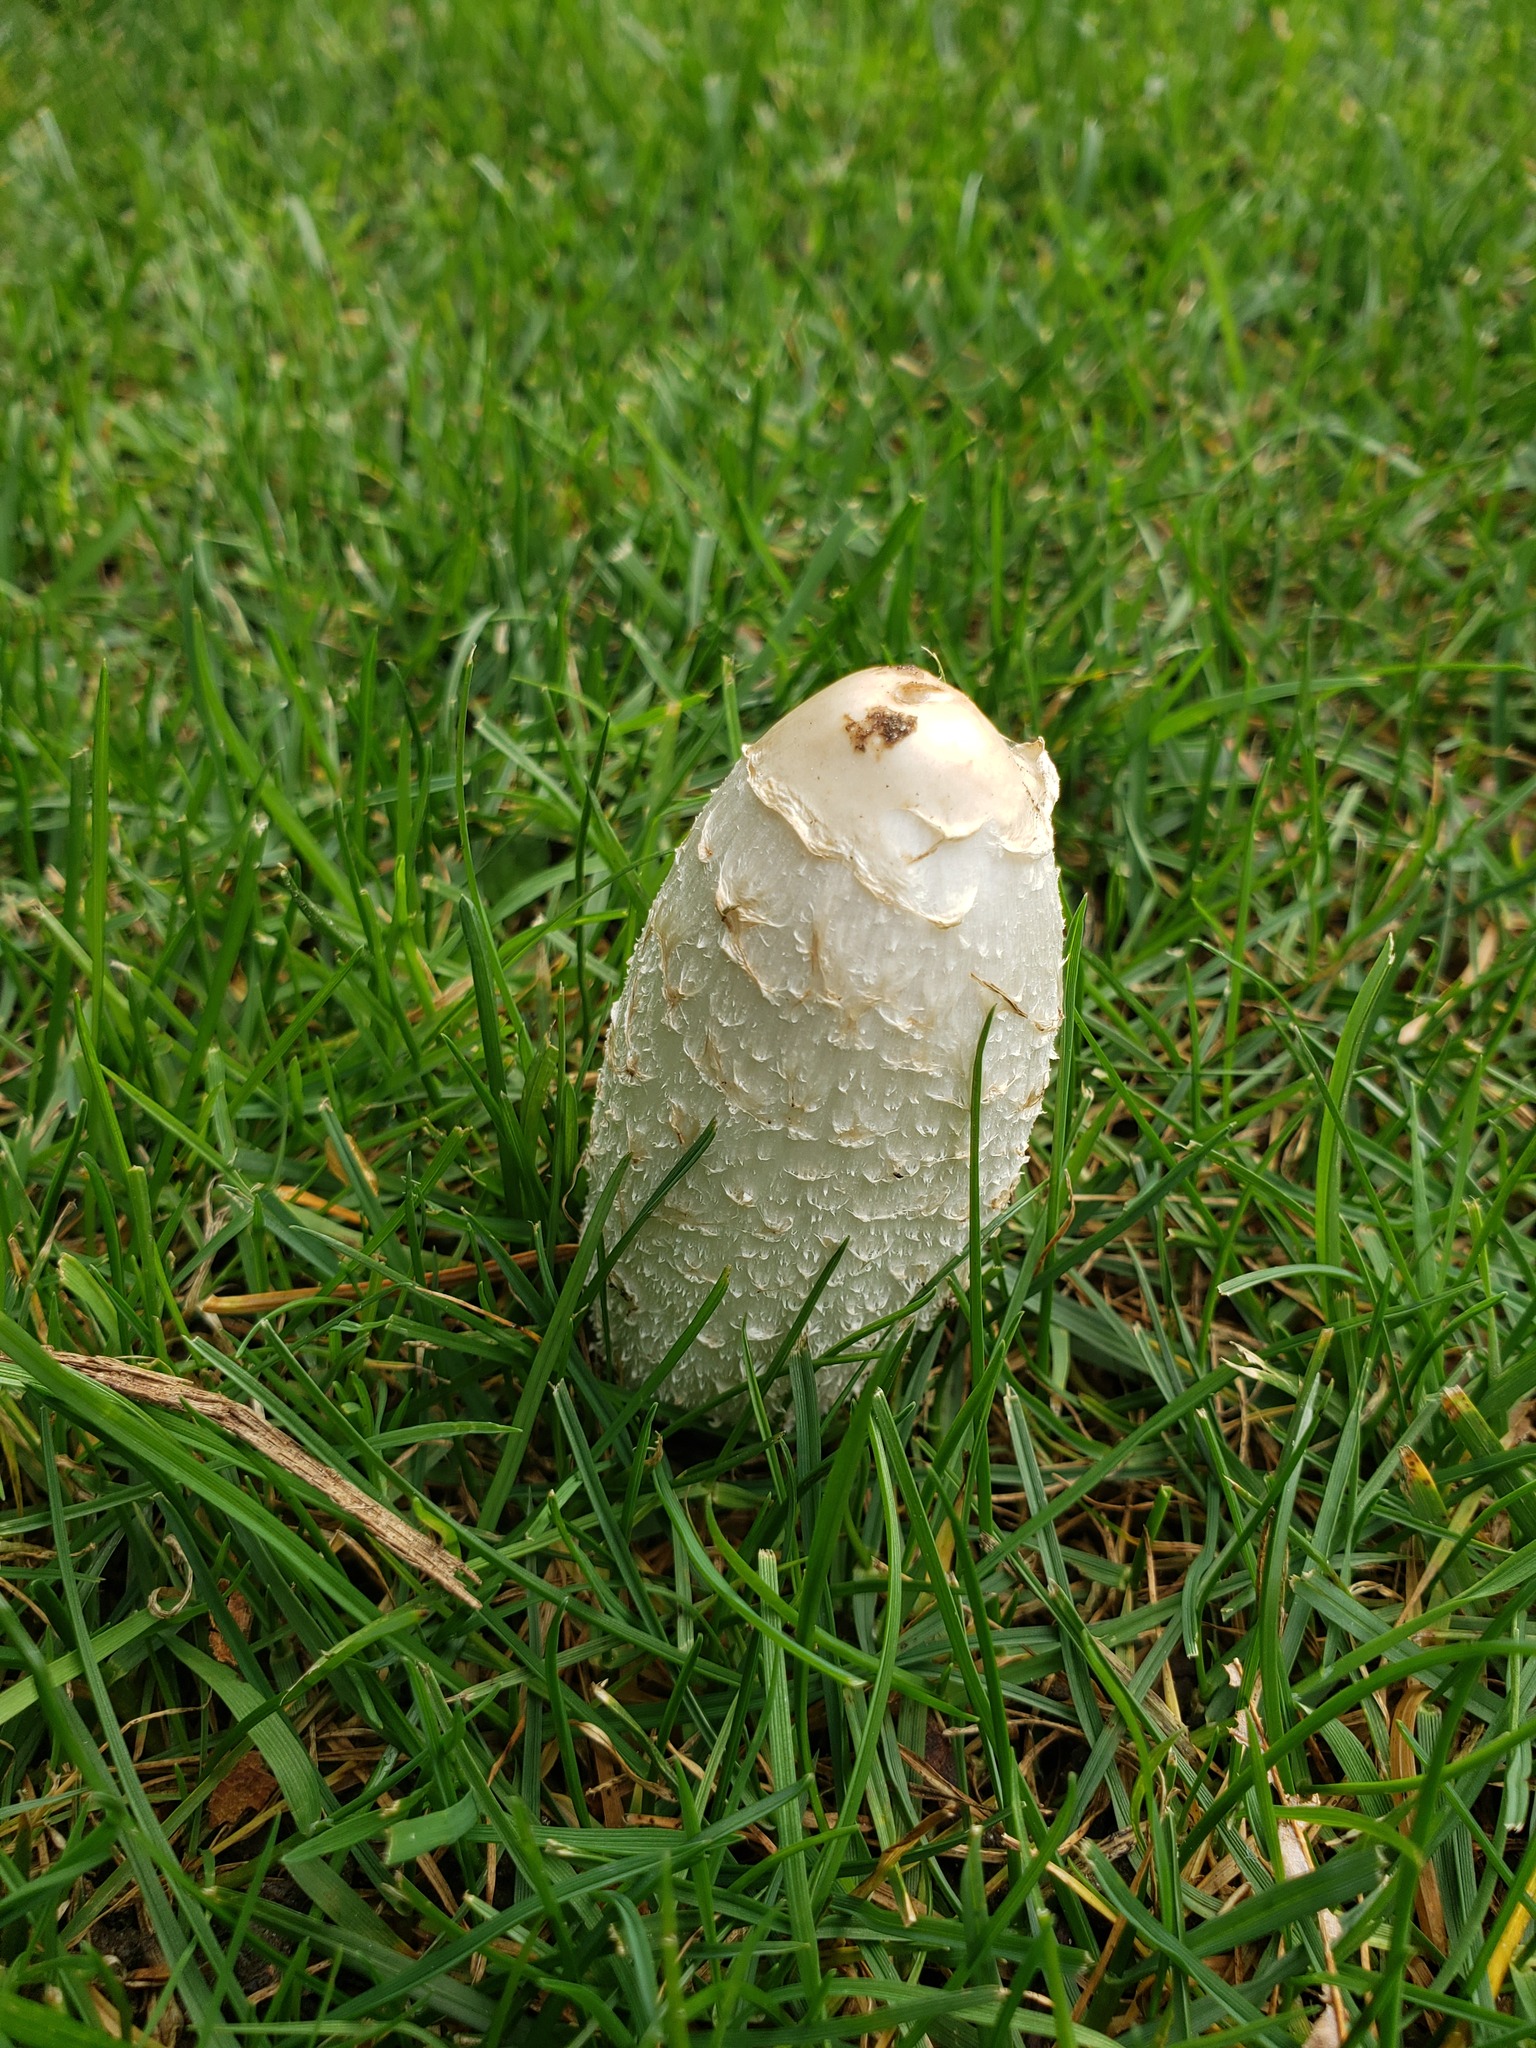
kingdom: Fungi
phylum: Basidiomycota
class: Agaricomycetes
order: Agaricales
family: Agaricaceae
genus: Coprinus
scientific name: Coprinus comatus
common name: Lawyer's wig
